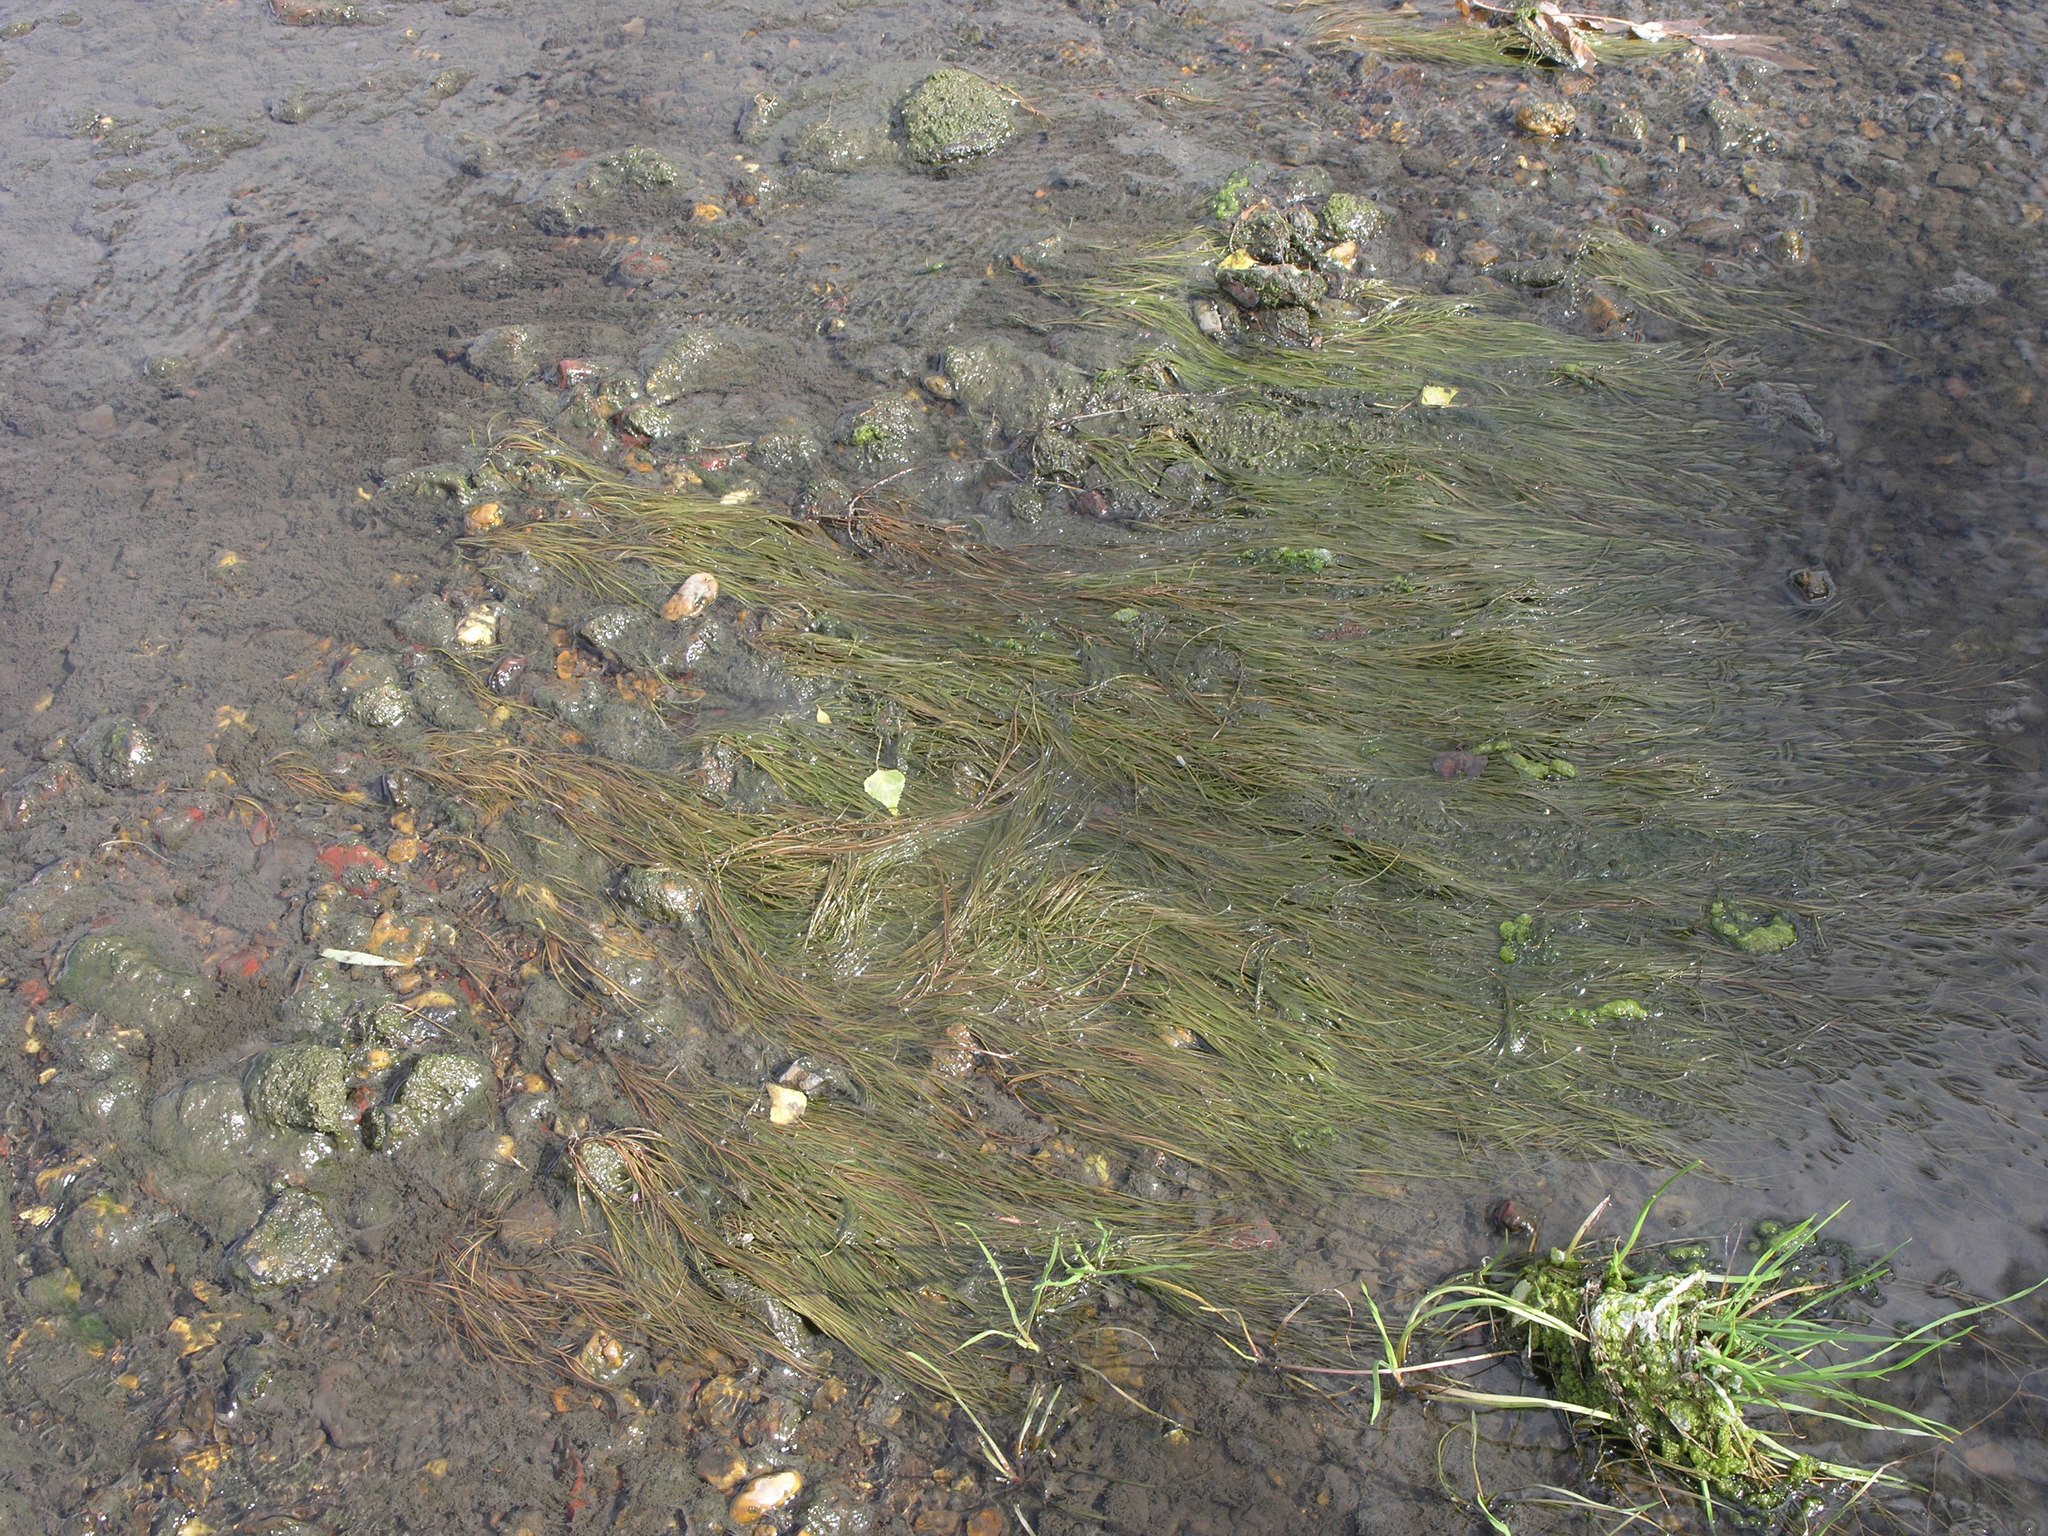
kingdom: Plantae
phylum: Tracheophyta
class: Liliopsida
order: Alismatales
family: Potamogetonaceae
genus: Stuckenia
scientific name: Stuckenia pectinata
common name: Sago pondweed
